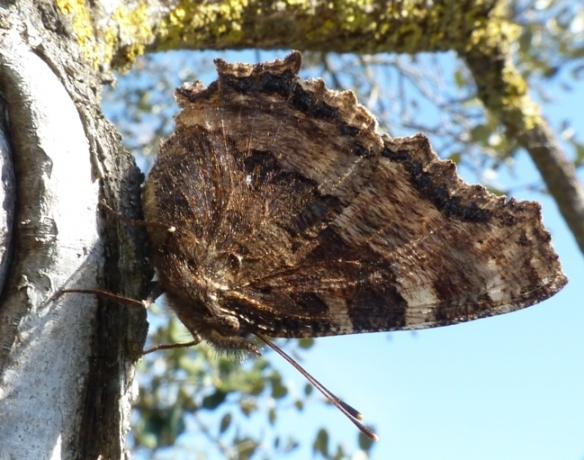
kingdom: Animalia
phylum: Arthropoda
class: Insecta
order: Lepidoptera
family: Nymphalidae
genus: Nymphalis
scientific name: Nymphalis polychloros
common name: Large tortoiseshell
